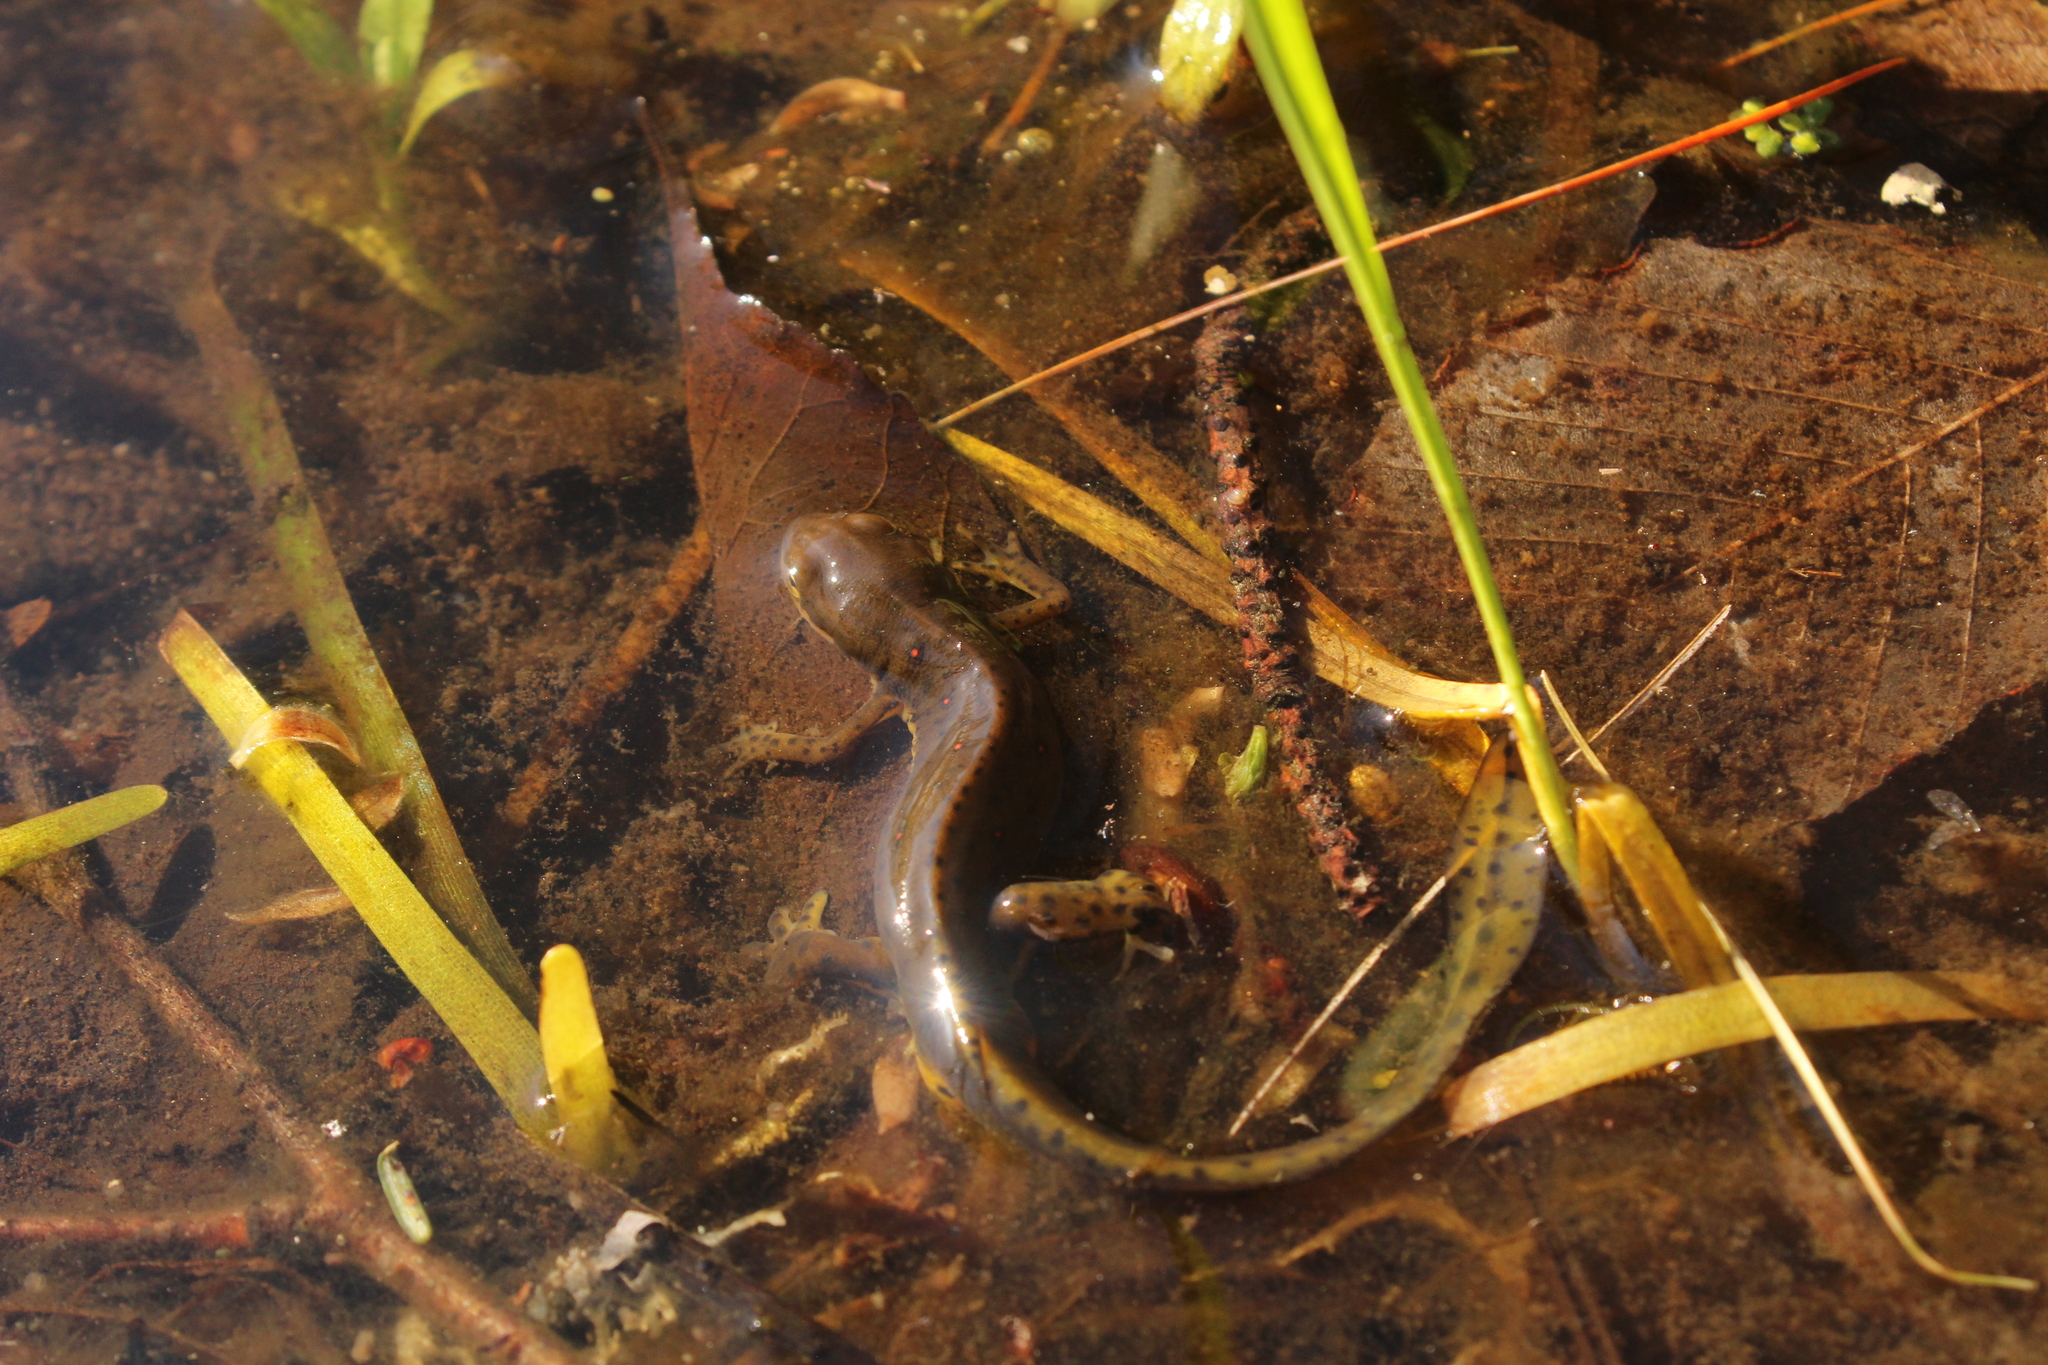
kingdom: Animalia
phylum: Chordata
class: Amphibia
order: Caudata
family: Salamandridae
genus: Notophthalmus
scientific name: Notophthalmus viridescens
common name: Eastern newt
